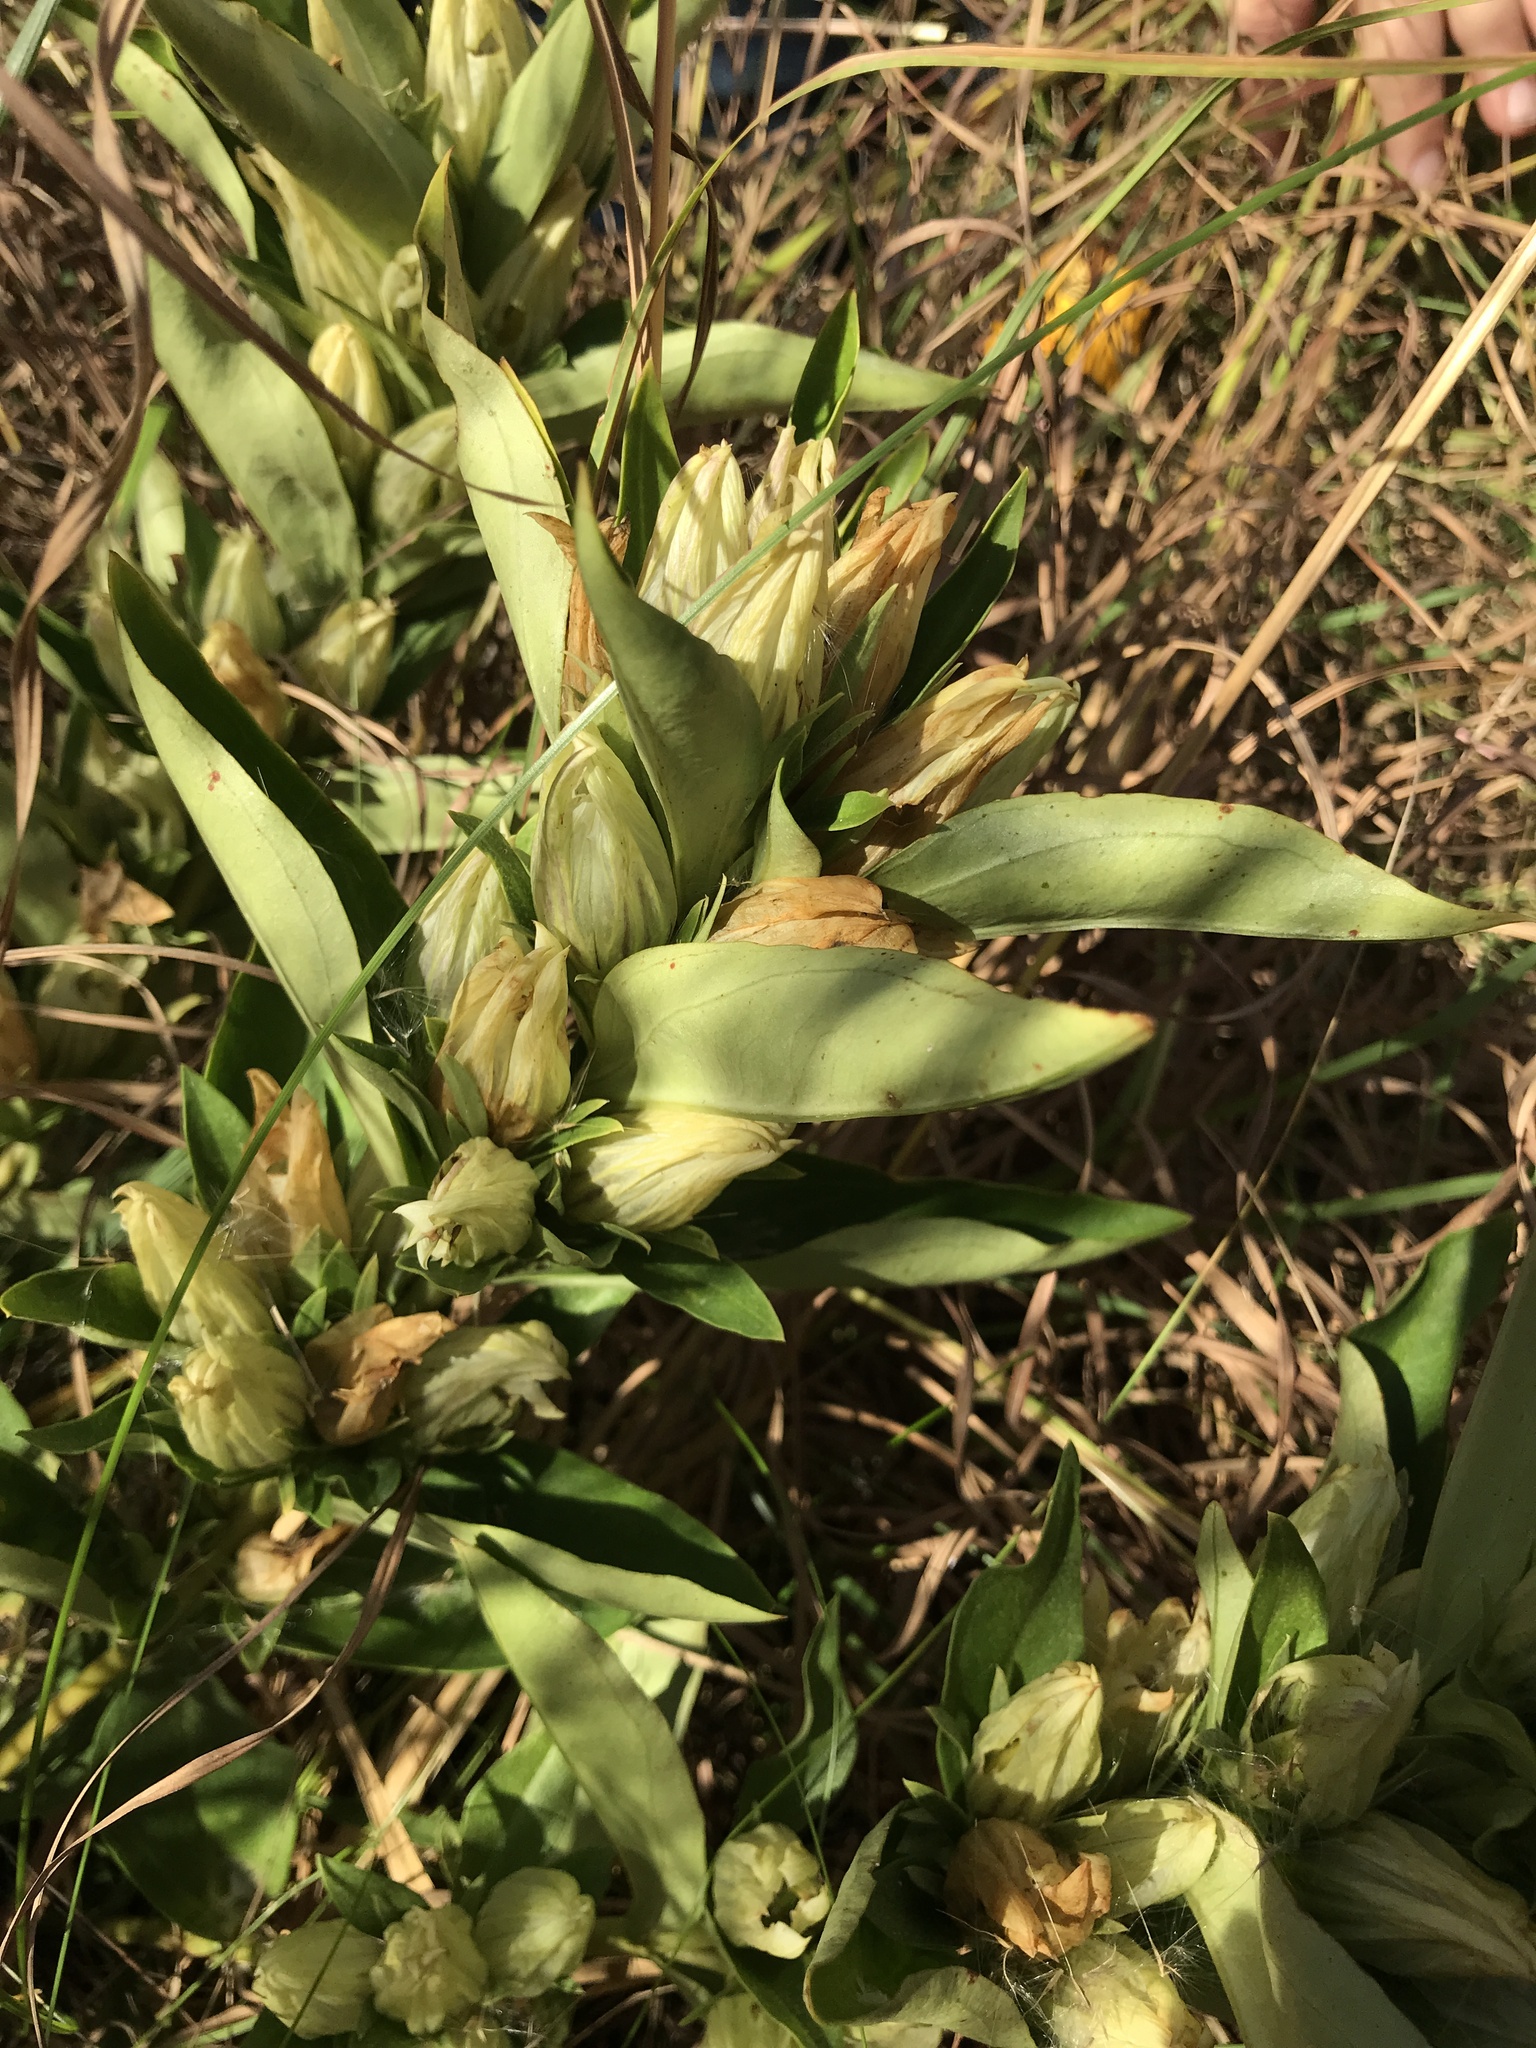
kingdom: Plantae
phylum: Tracheophyta
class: Magnoliopsida
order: Gentianales
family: Gentianaceae
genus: Gentiana
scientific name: Gentiana villosa
